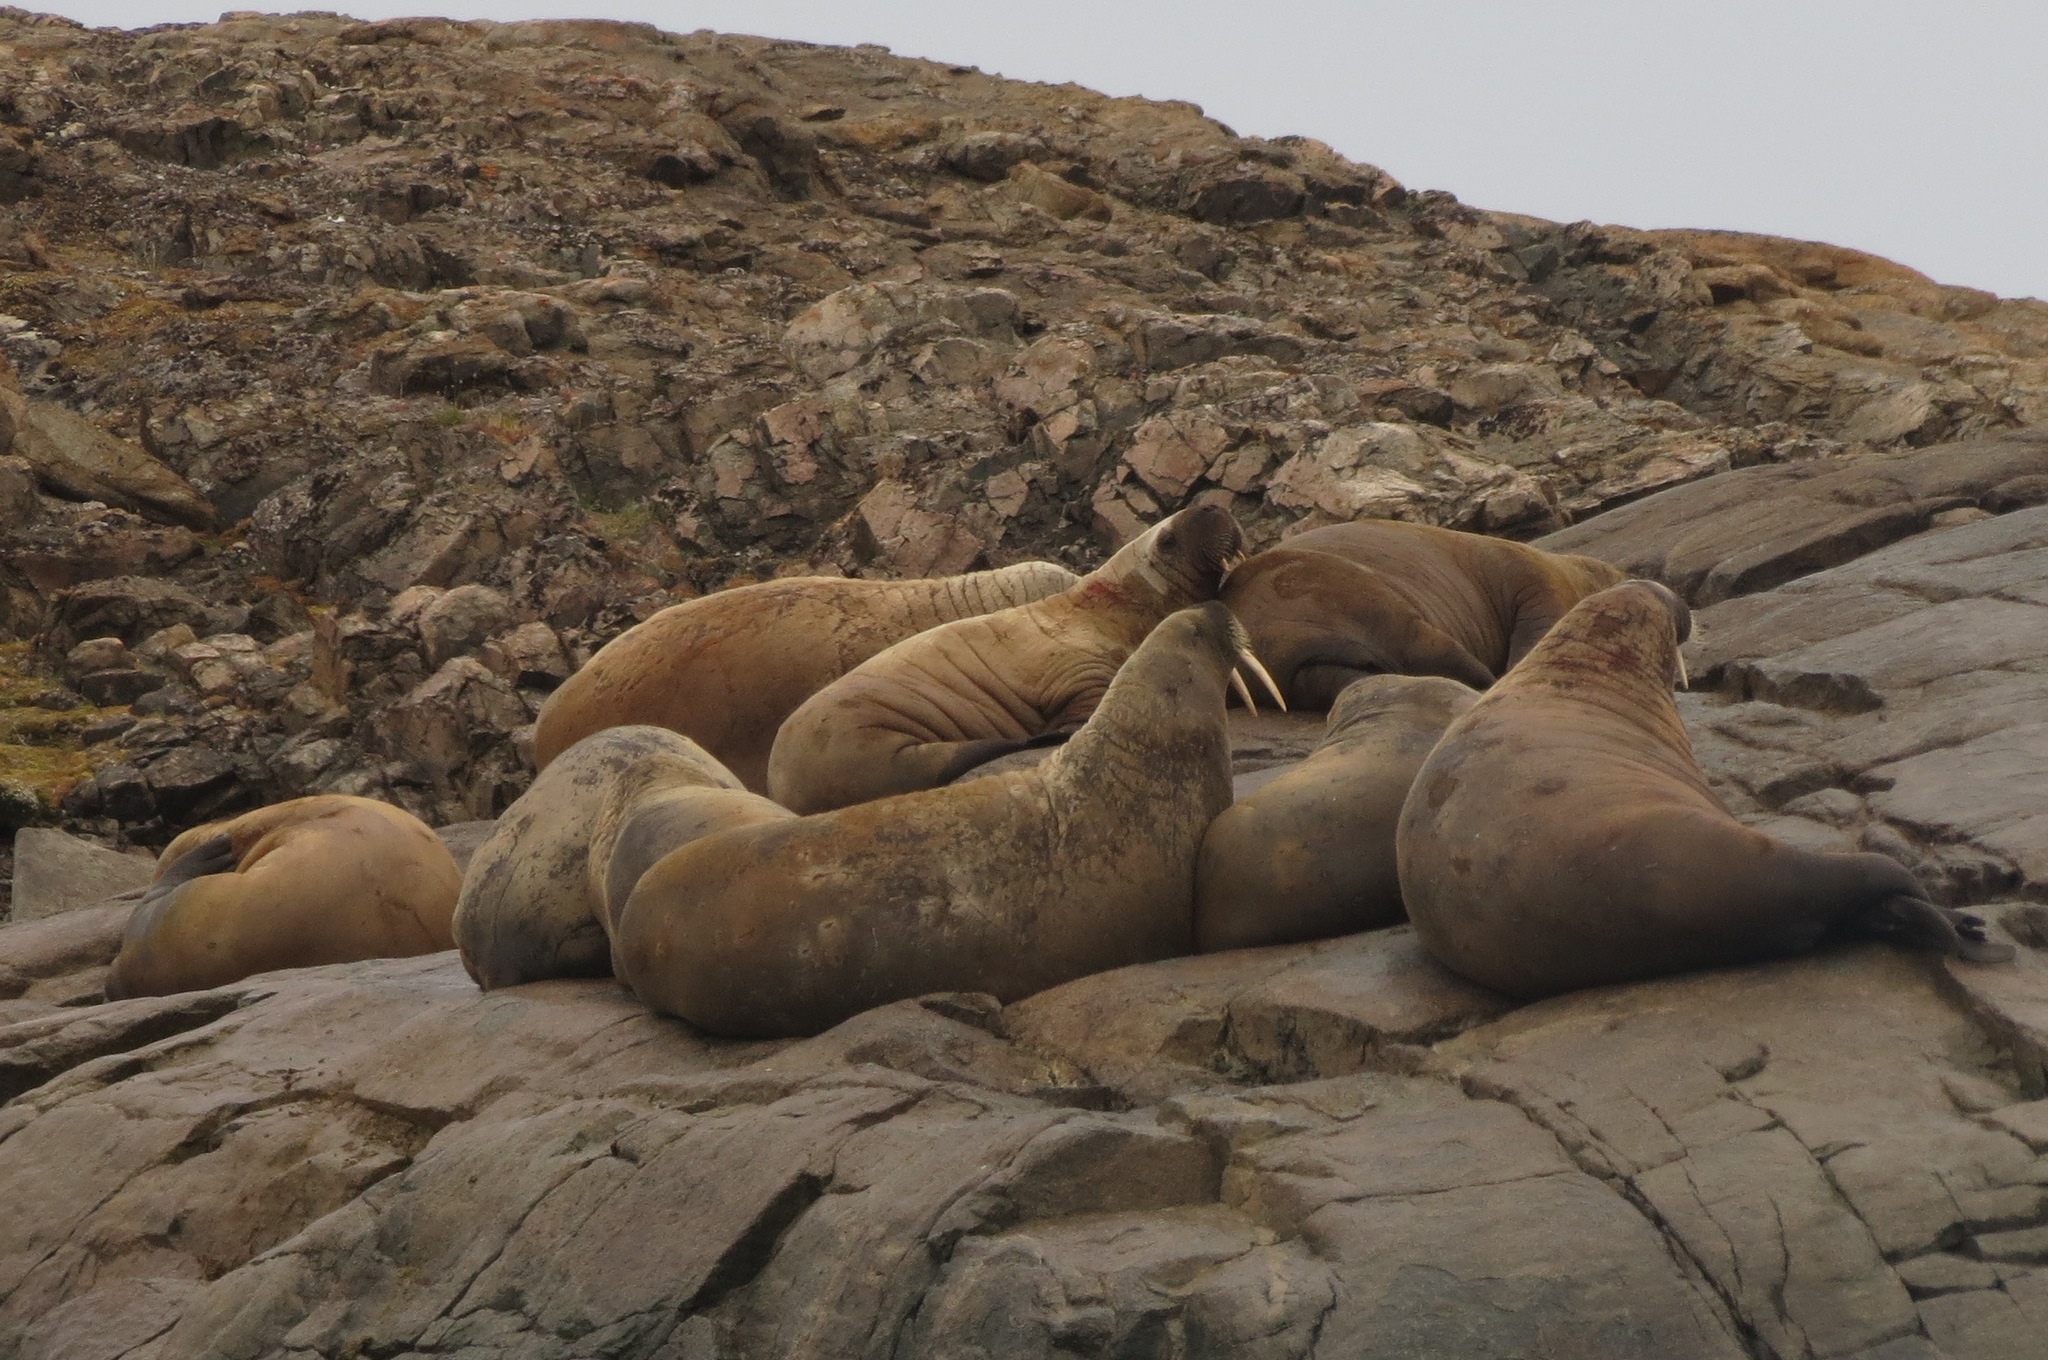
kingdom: Animalia
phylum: Chordata
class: Mammalia
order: Carnivora
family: Odobenidae
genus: Odobenus
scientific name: Odobenus rosmarus
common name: Walrus
